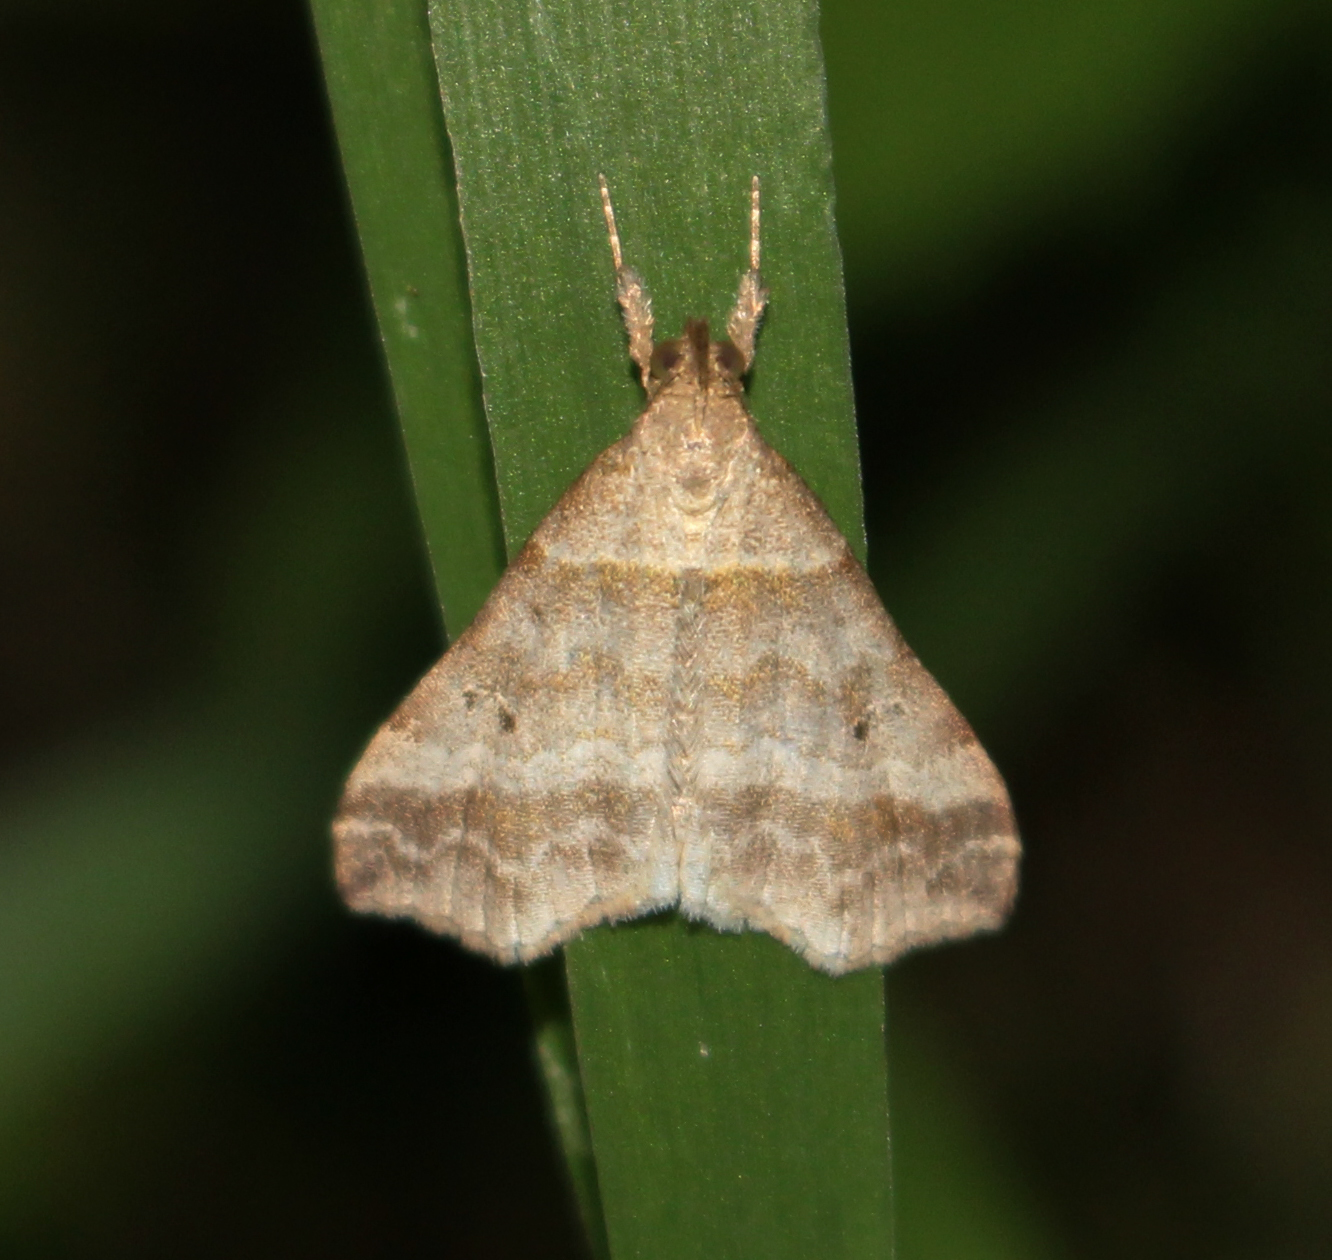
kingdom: Animalia
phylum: Arthropoda
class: Insecta
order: Lepidoptera
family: Erebidae
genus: Phaeolita
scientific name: Phaeolita pyramusalis
